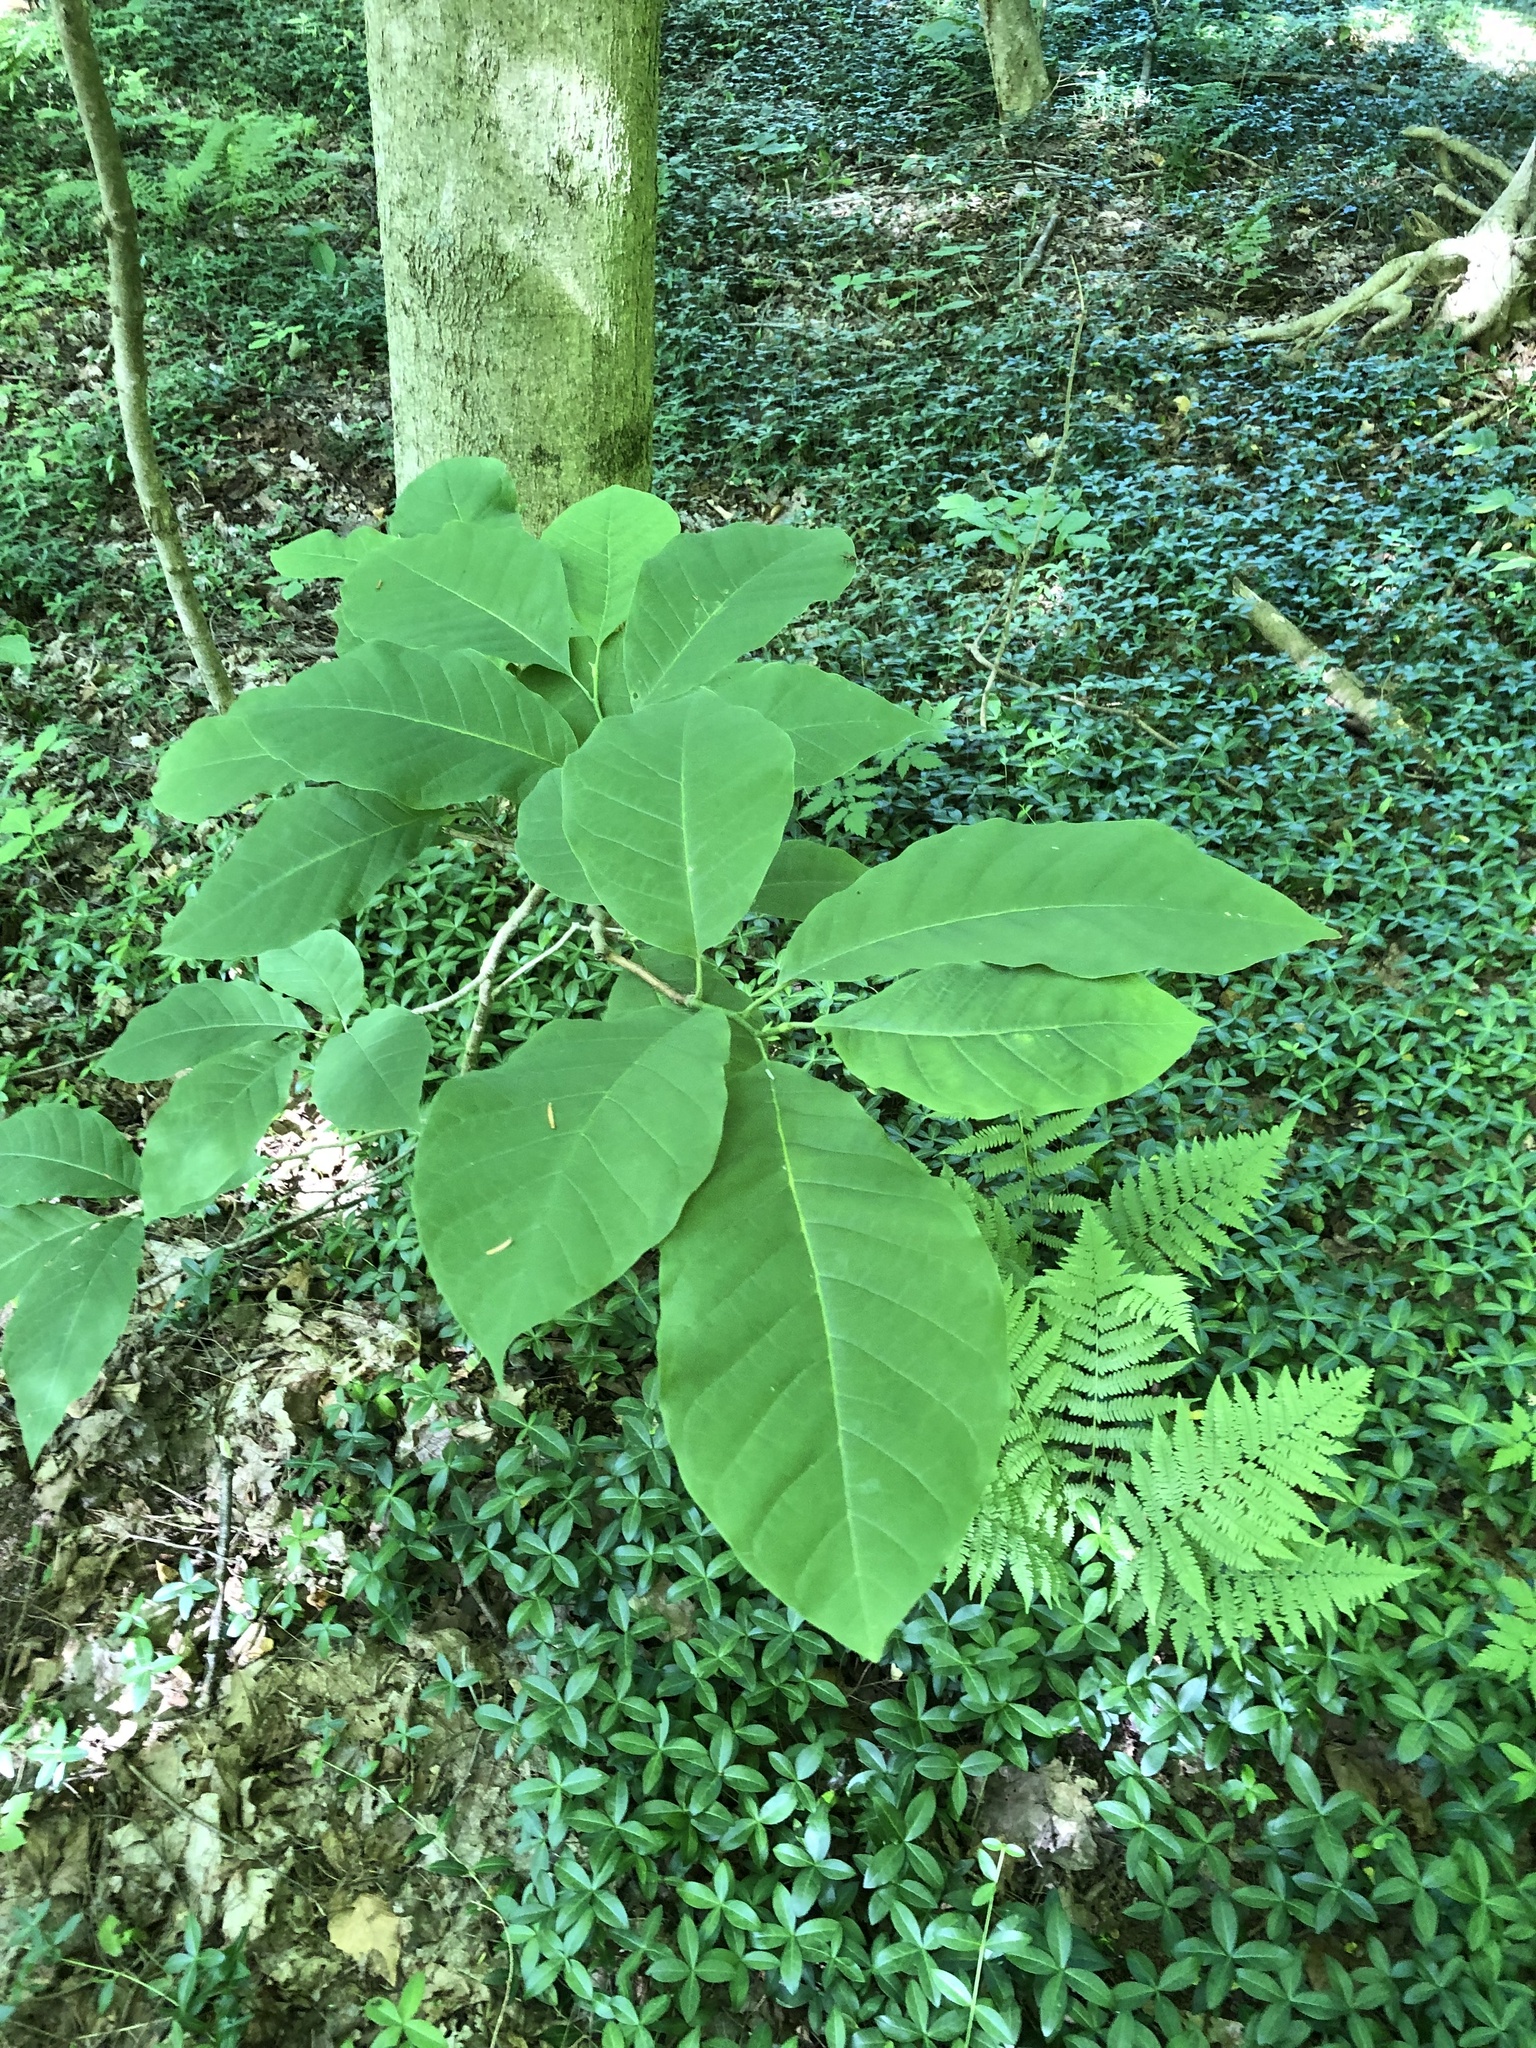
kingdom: Plantae
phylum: Tracheophyta
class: Magnoliopsida
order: Magnoliales
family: Magnoliaceae
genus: Magnolia
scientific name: Magnolia acuminata
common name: Cucumber magnolia
